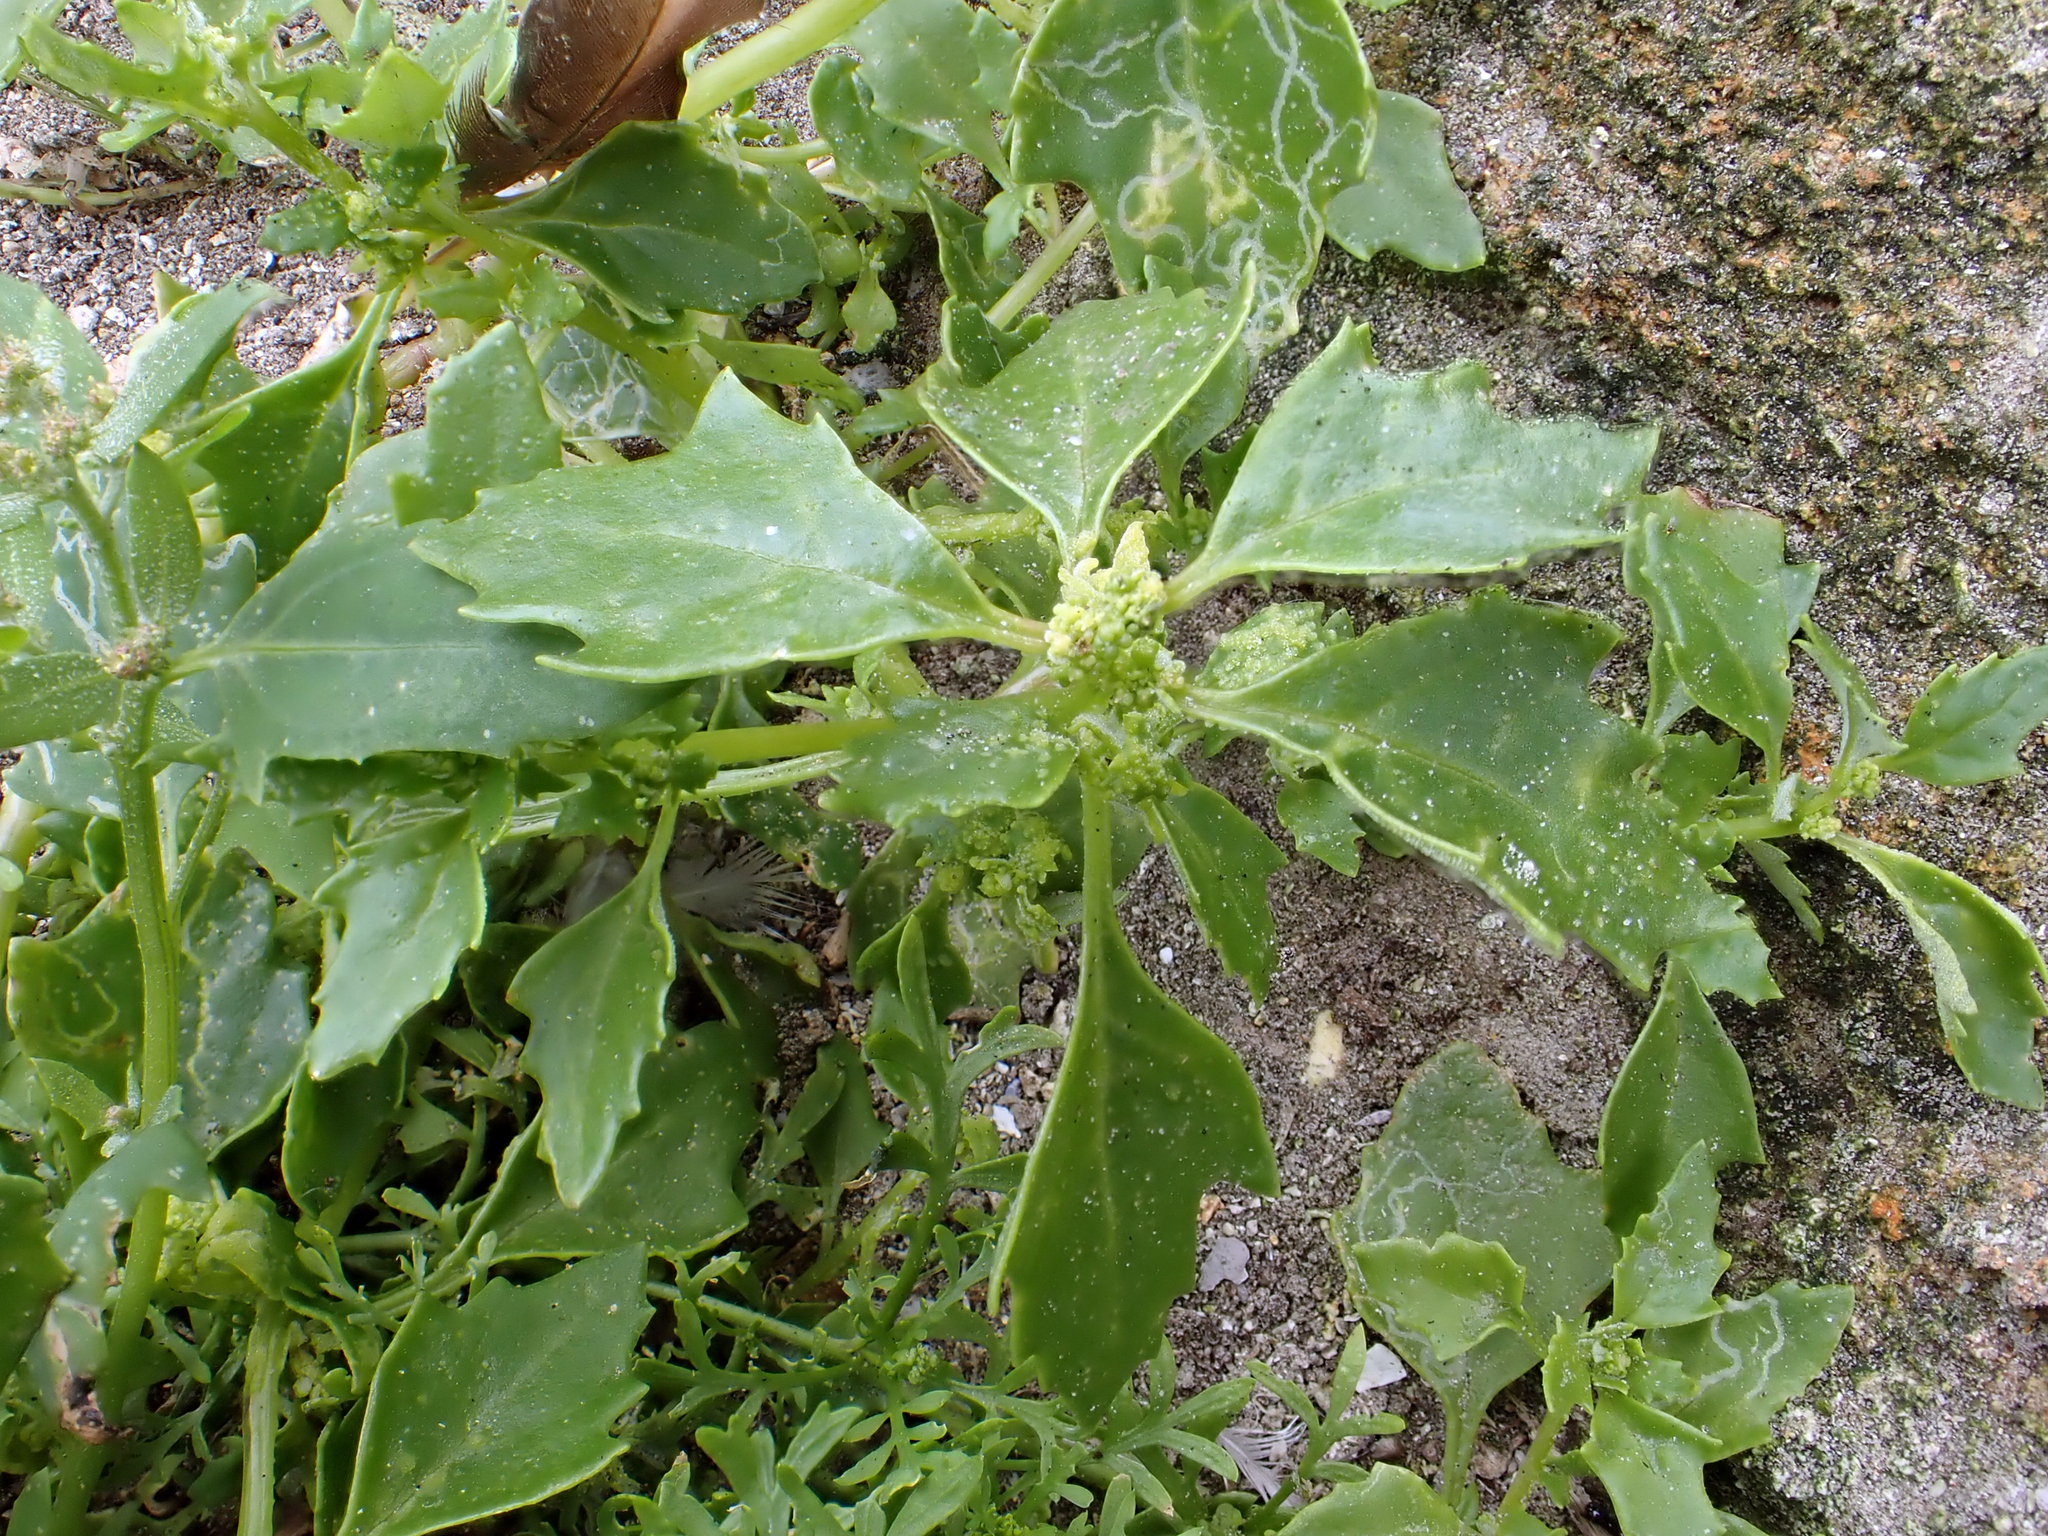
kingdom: Plantae
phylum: Tracheophyta
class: Magnoliopsida
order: Caryophyllales
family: Amaranthaceae
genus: Oxybasis
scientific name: Oxybasis ambigua
